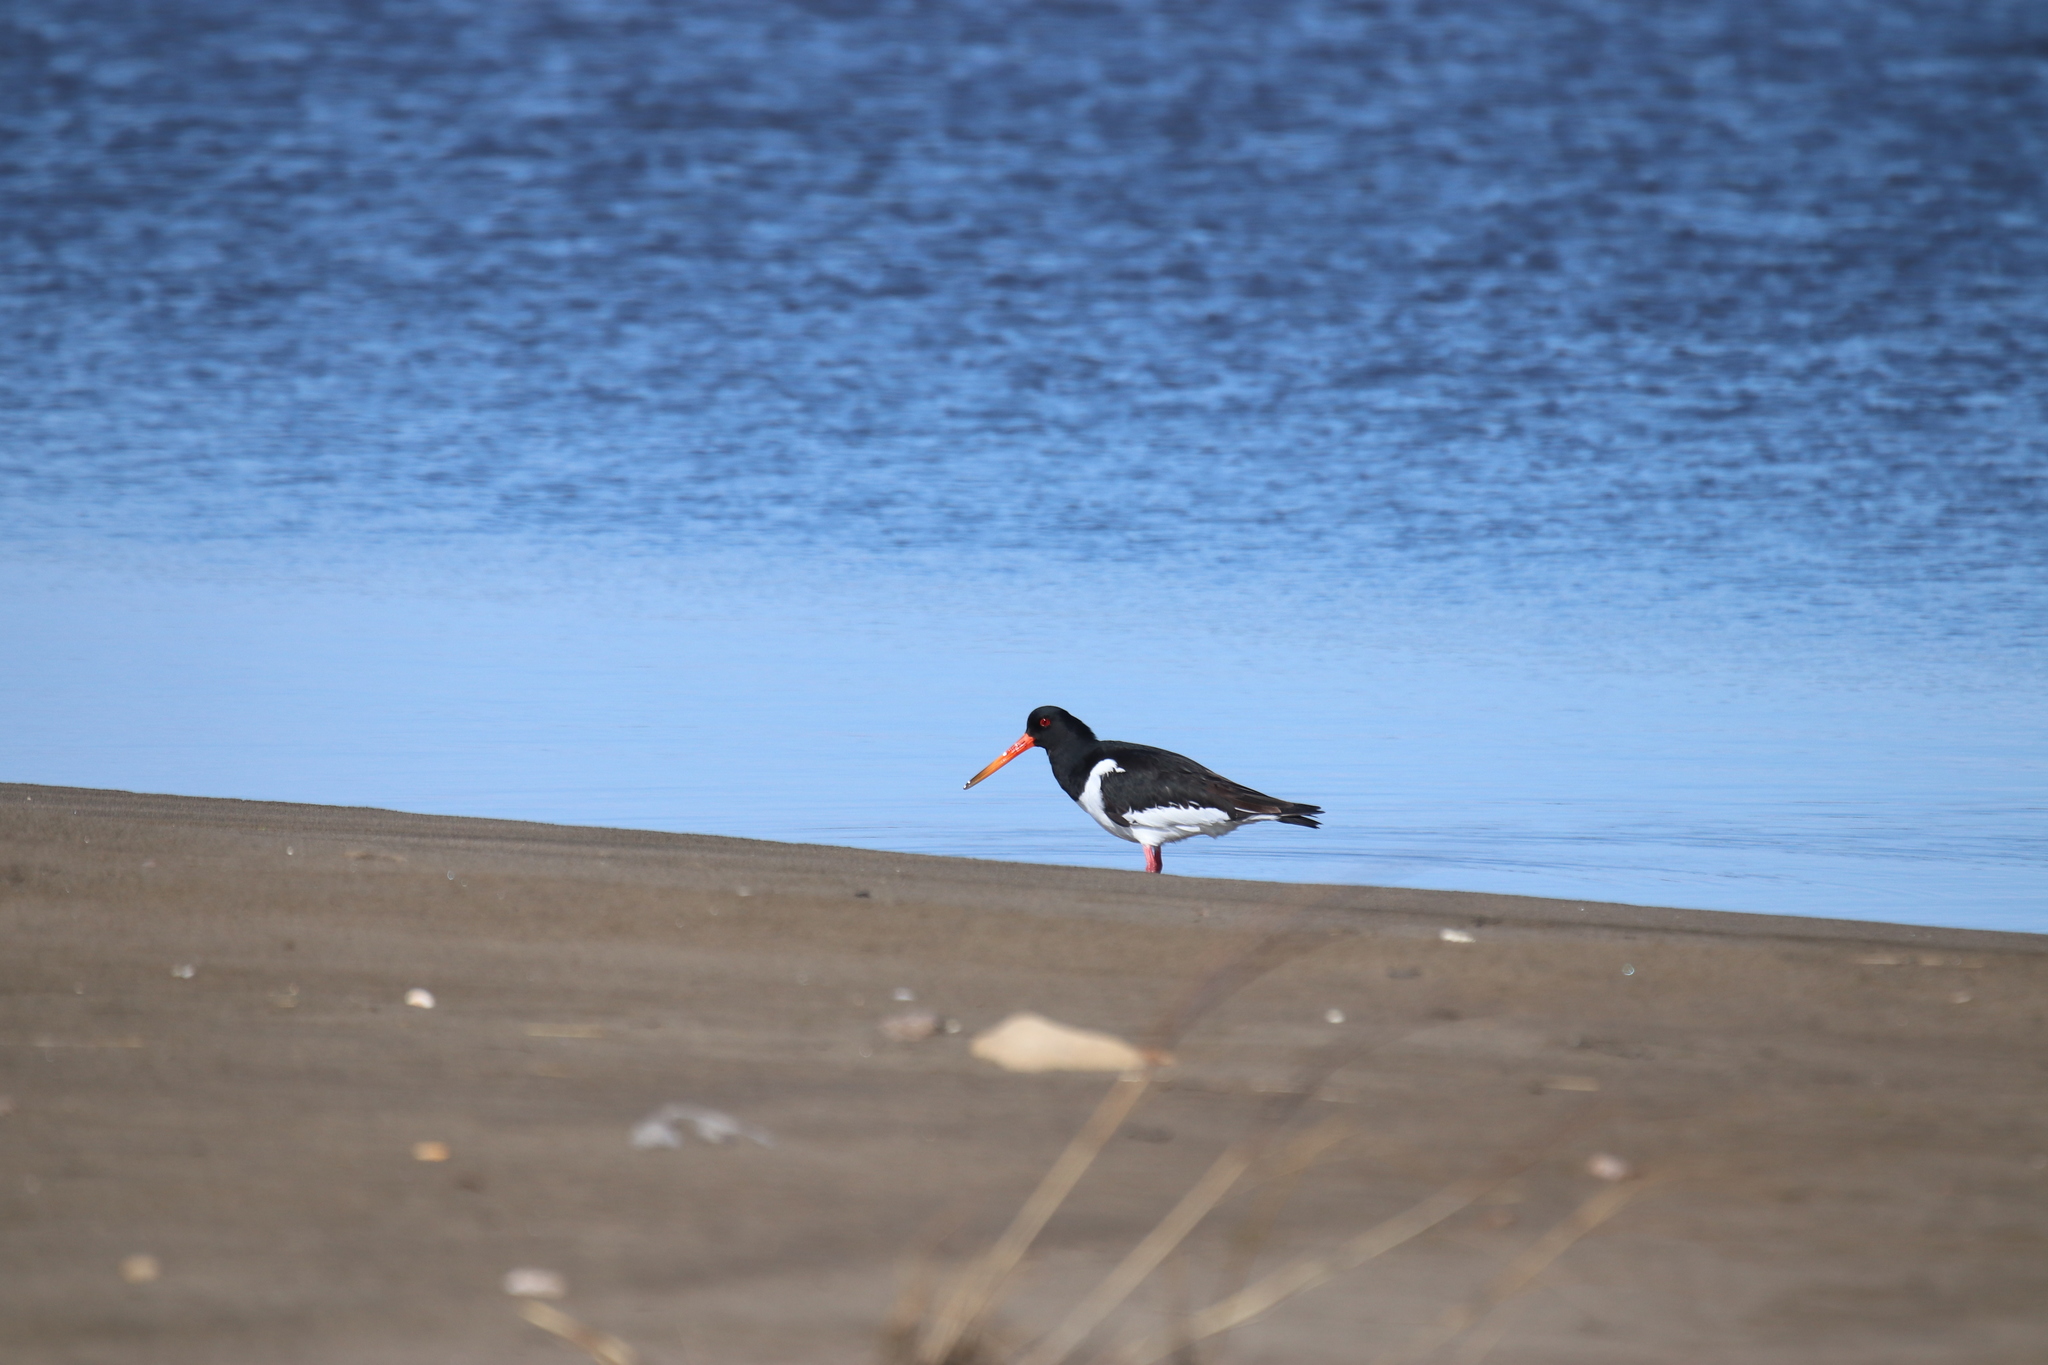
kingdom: Animalia
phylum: Chordata
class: Aves
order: Charadriiformes
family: Haematopodidae
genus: Haematopus
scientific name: Haematopus ostralegus
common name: Eurasian oystercatcher
